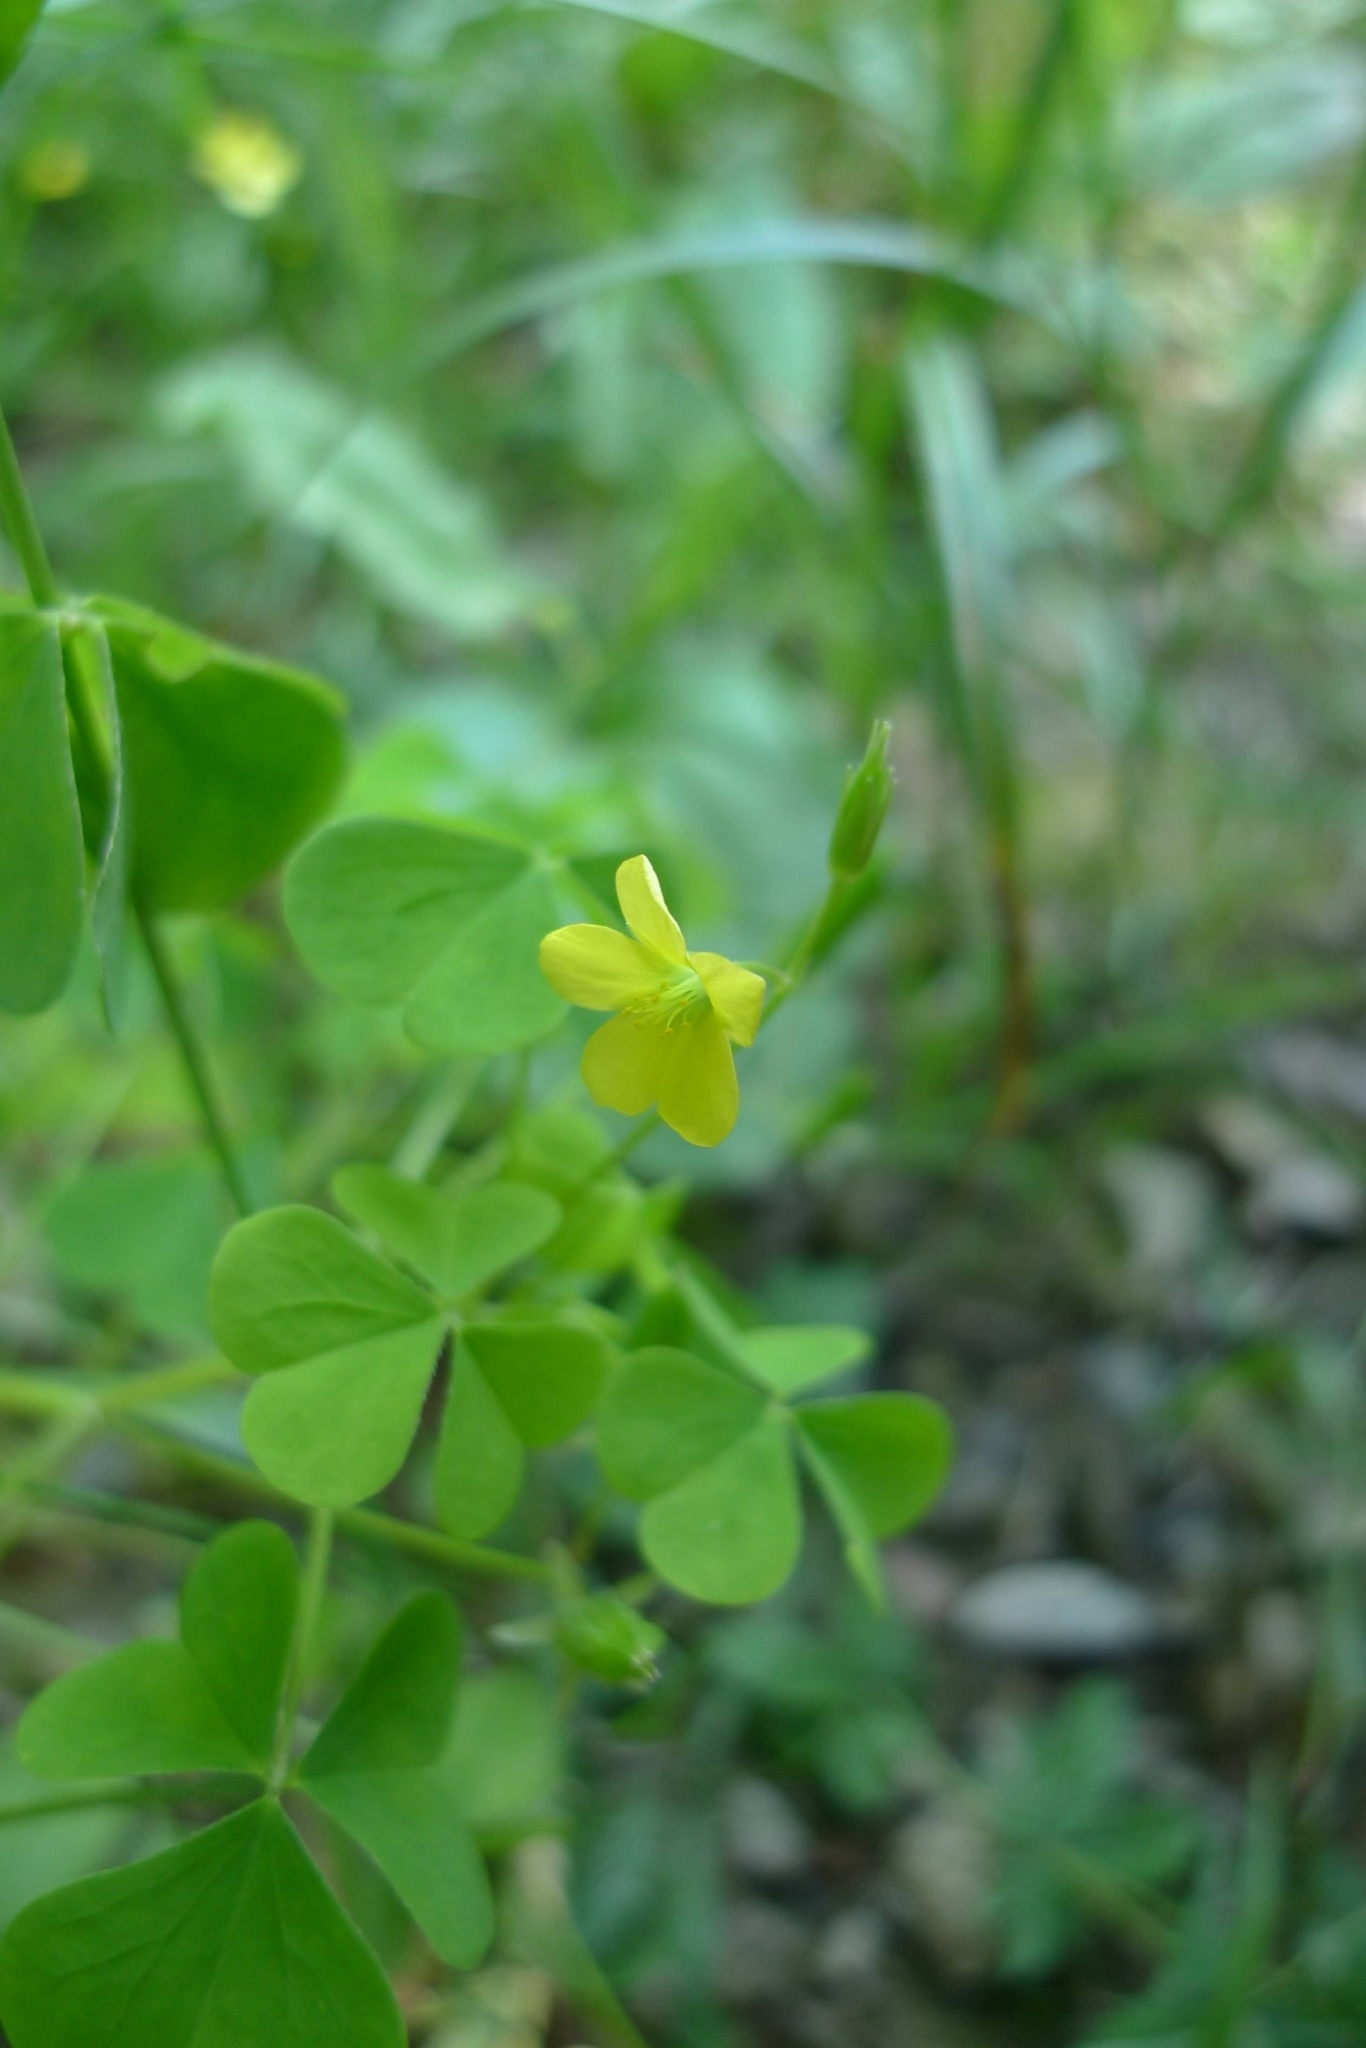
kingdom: Plantae
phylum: Tracheophyta
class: Magnoliopsida
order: Oxalidales
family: Oxalidaceae
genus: Oxalis
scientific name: Oxalis stricta
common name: Upright yellow-sorrel
